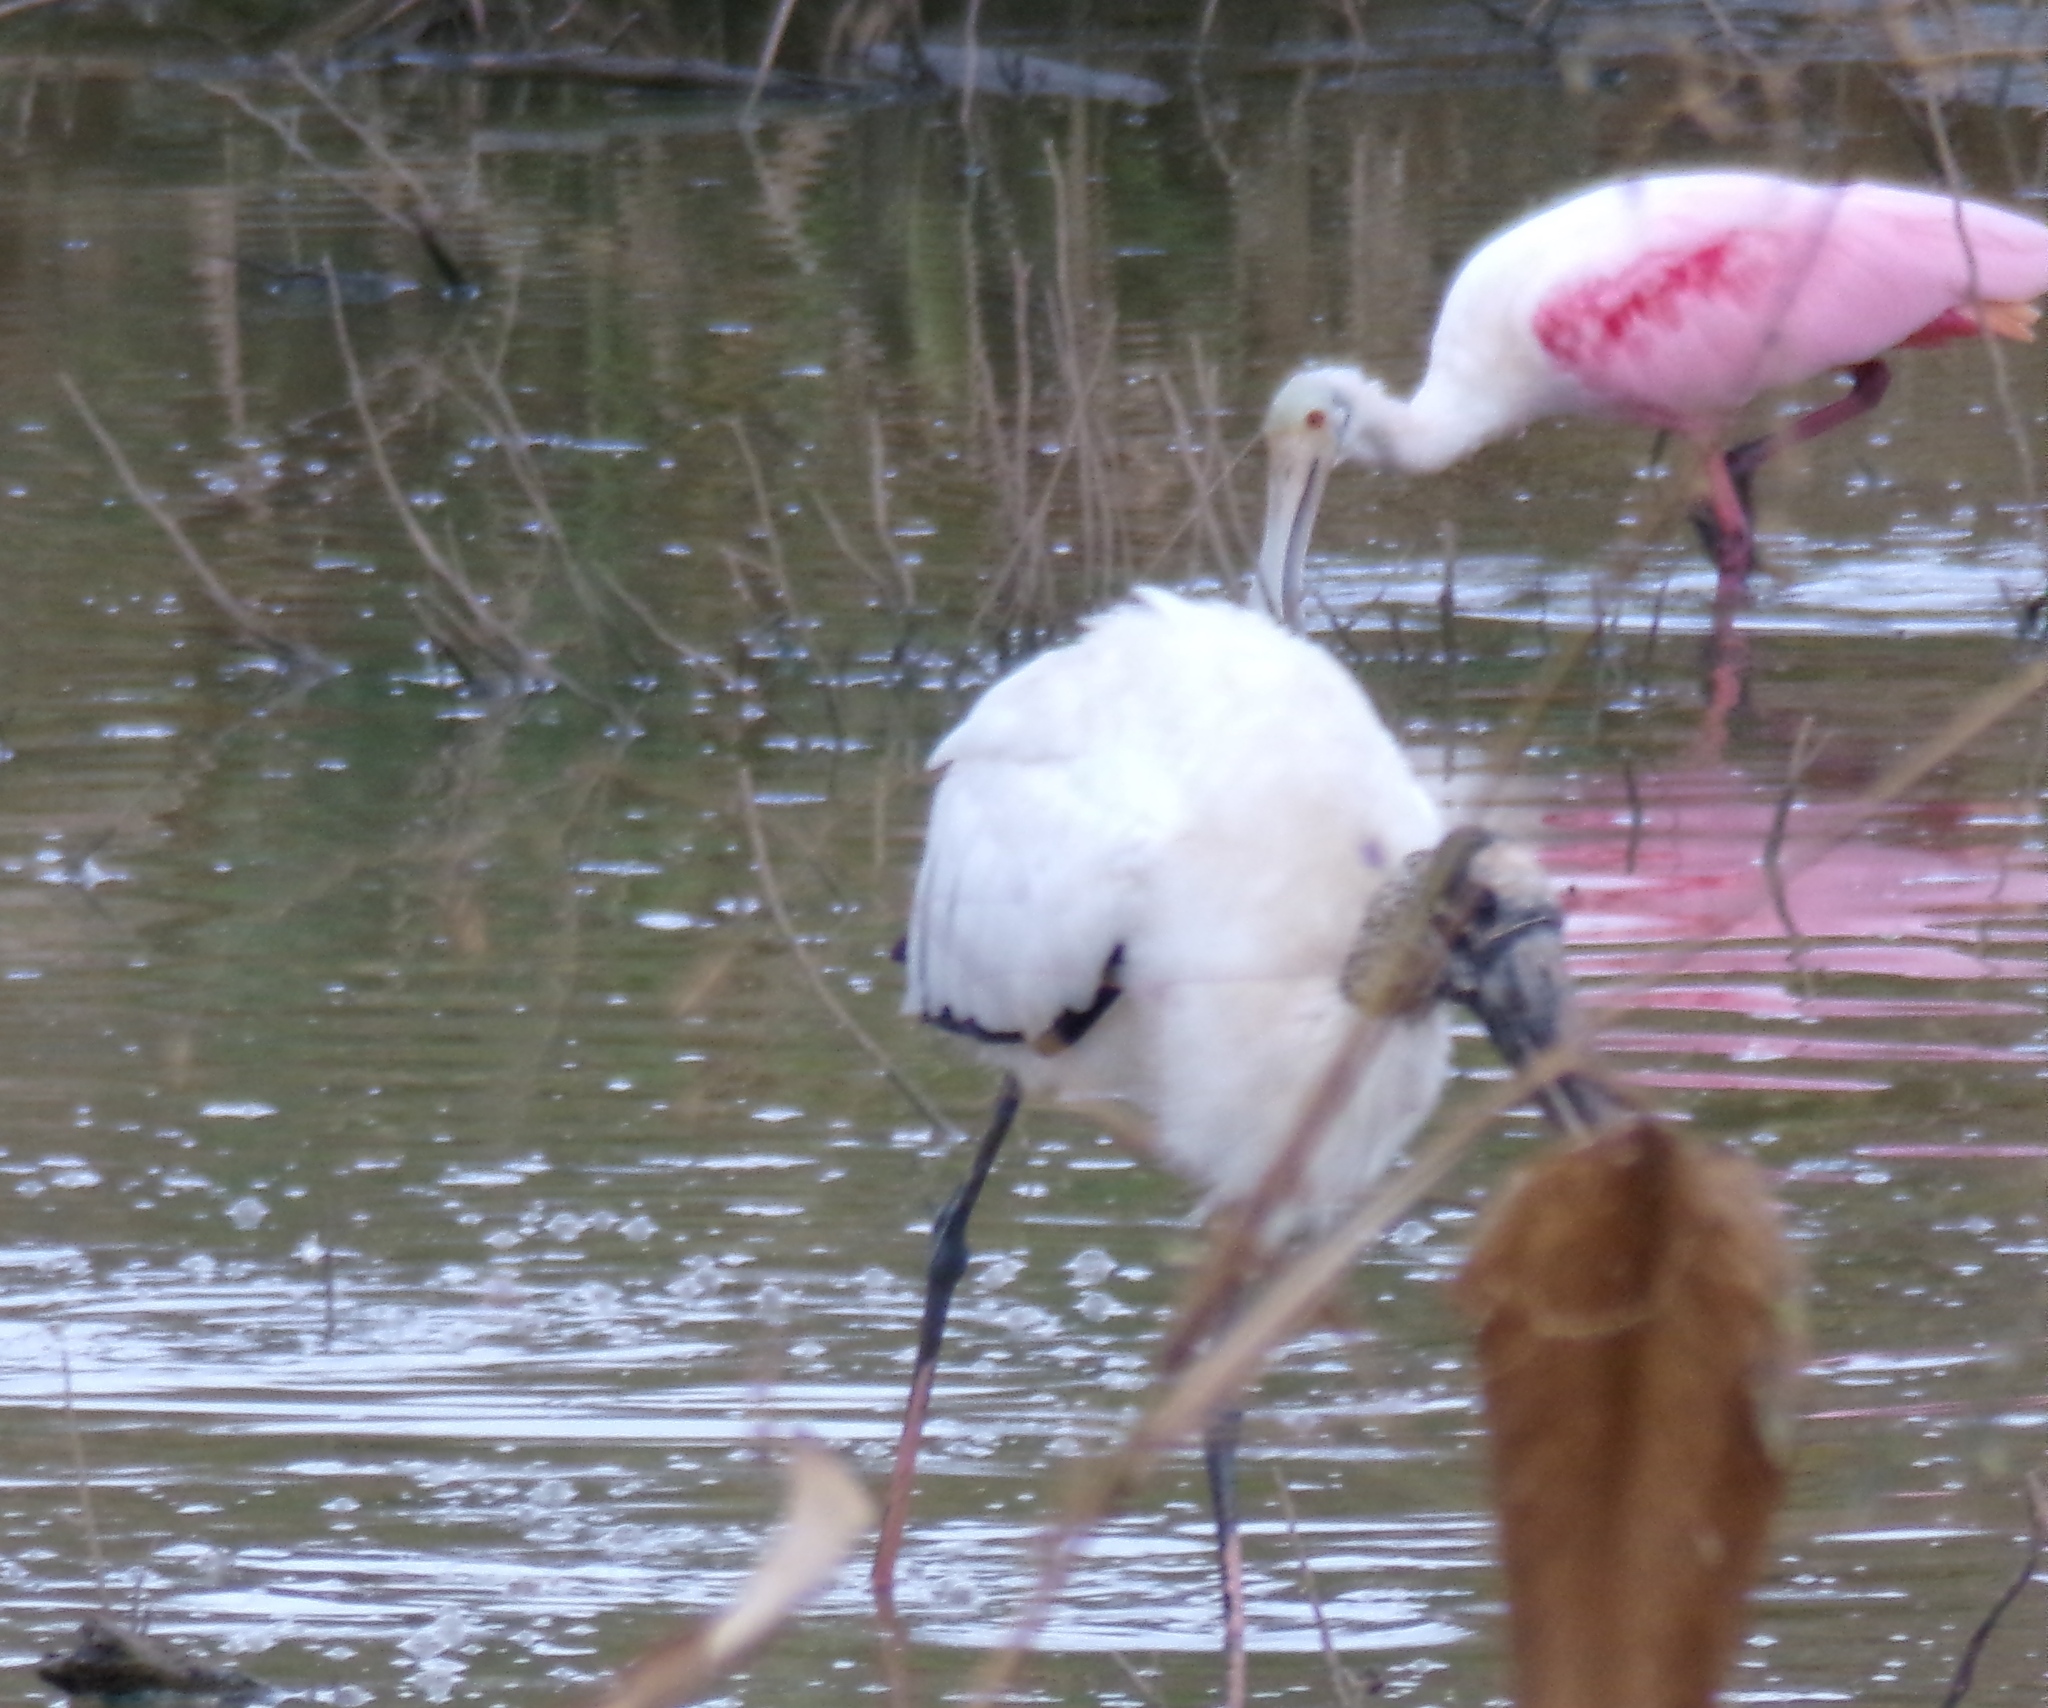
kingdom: Animalia
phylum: Chordata
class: Aves
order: Ciconiiformes
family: Ciconiidae
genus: Mycteria
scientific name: Mycteria americana
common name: Wood stork
